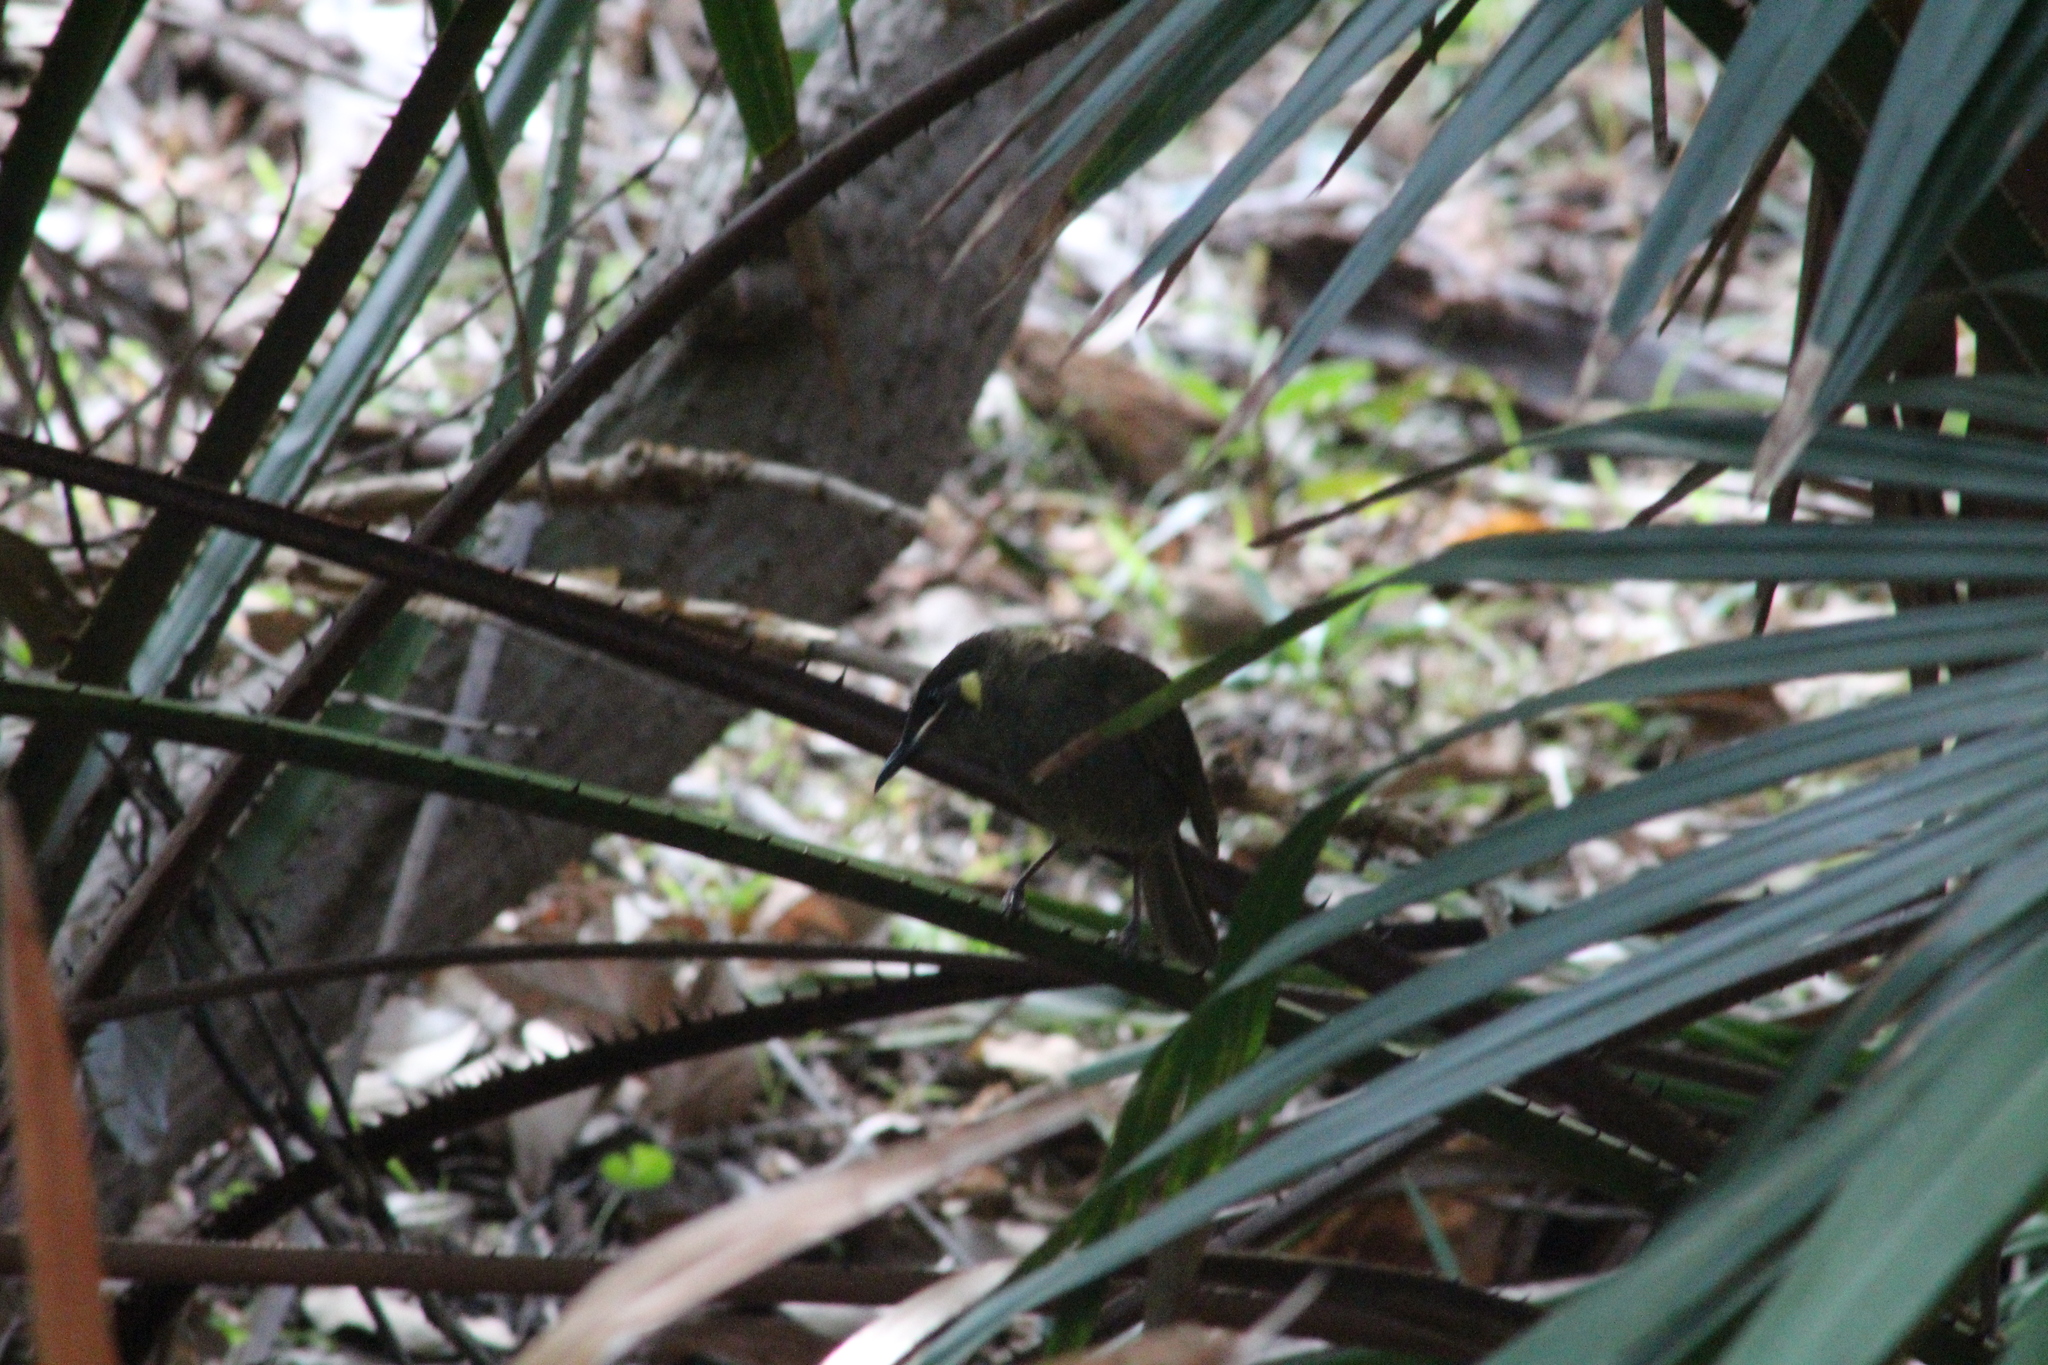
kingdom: Animalia
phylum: Chordata
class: Aves
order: Passeriformes
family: Meliphagidae
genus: Meliphaga
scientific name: Meliphaga lewinii
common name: Lewin's honeyeater
